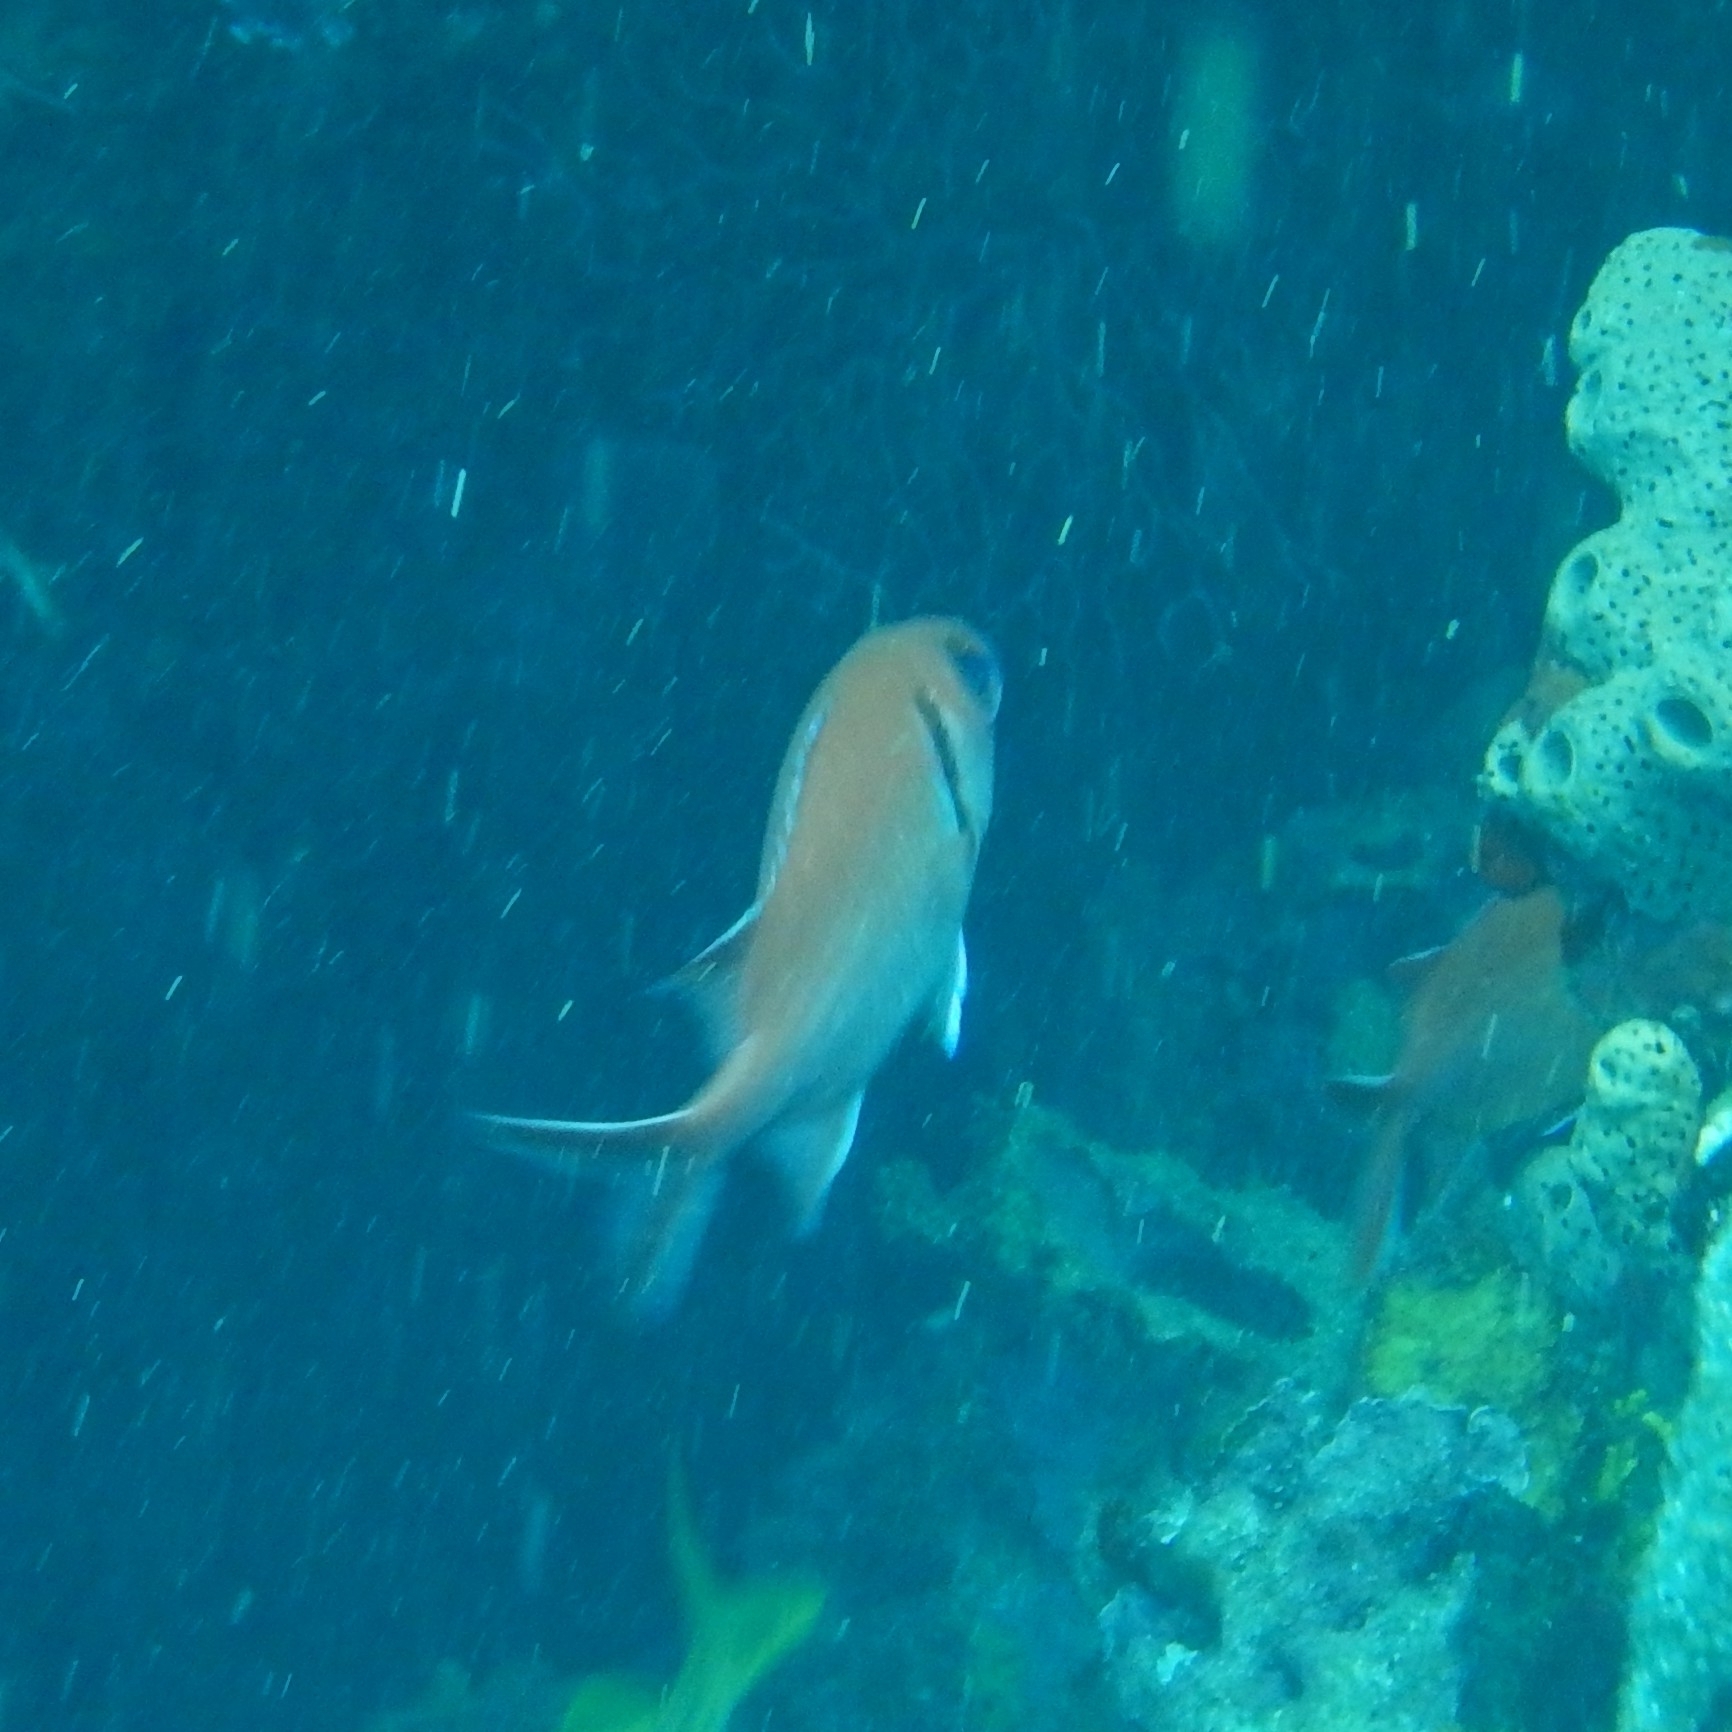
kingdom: Animalia
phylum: Chordata
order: Beryciformes
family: Holocentridae
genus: Myripristis
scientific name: Myripristis jacobus
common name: Blackbar soldierfish
